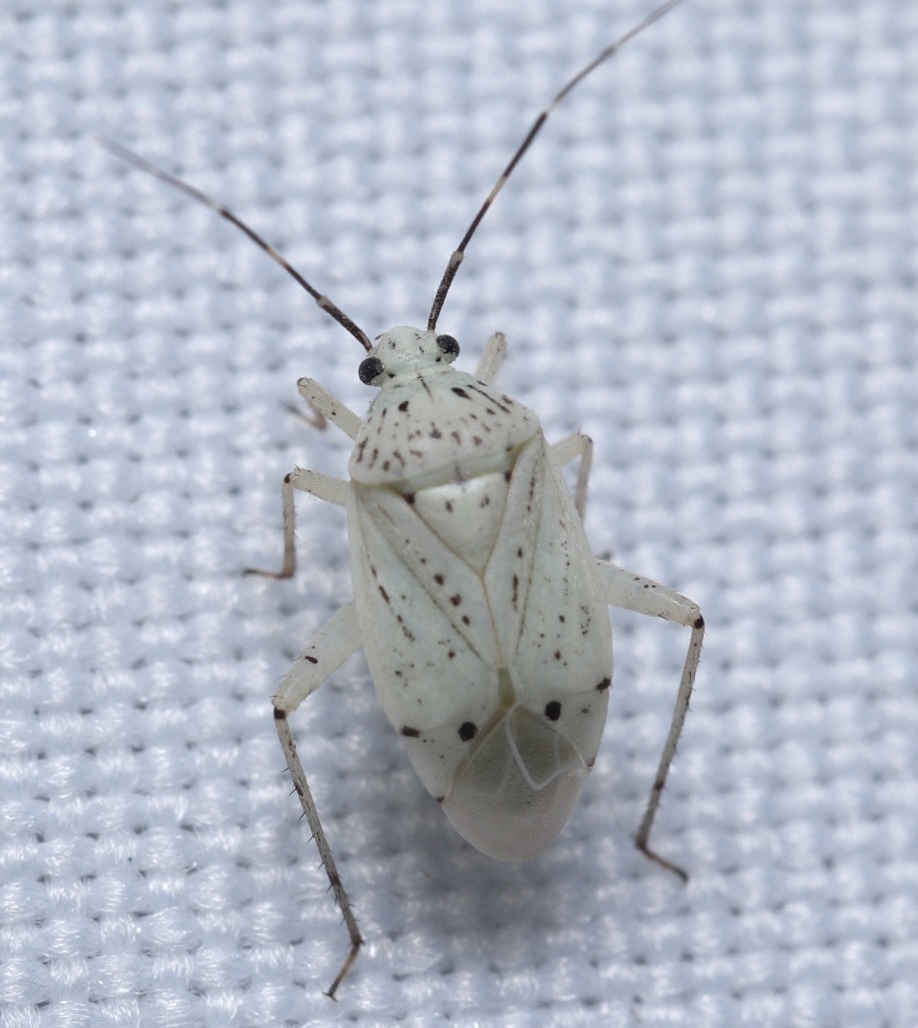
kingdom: Animalia
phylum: Arthropoda
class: Insecta
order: Hemiptera
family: Miridae
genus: Taedia
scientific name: Taedia mexicana
